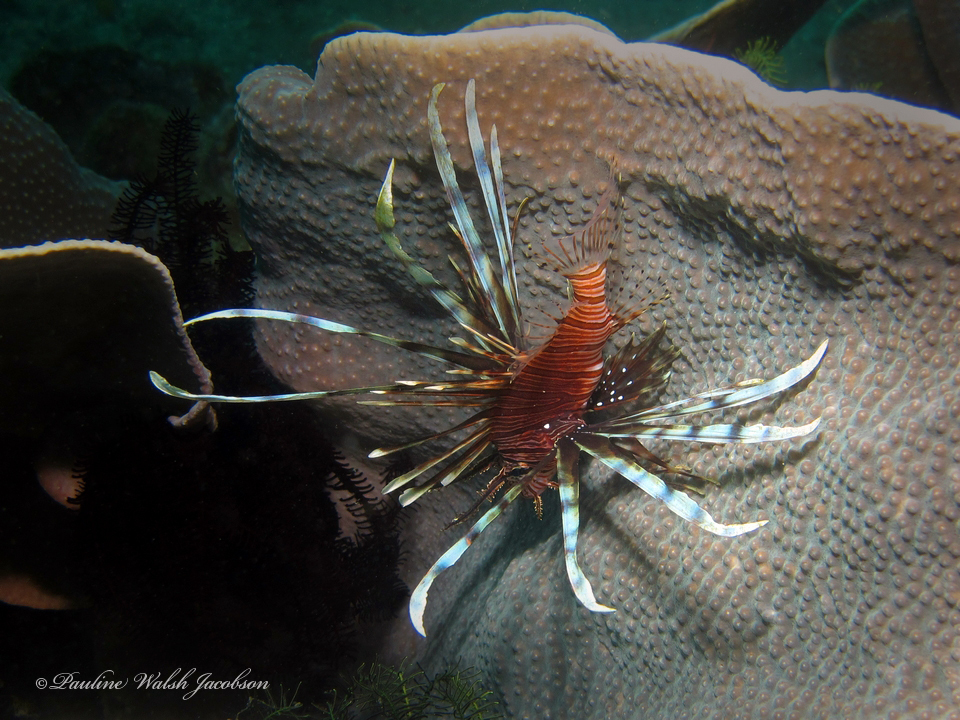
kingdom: Animalia
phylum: Chordata
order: Scorpaeniformes
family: Scorpaenidae
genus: Pterois
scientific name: Pterois russelii
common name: Plaintail firefish
